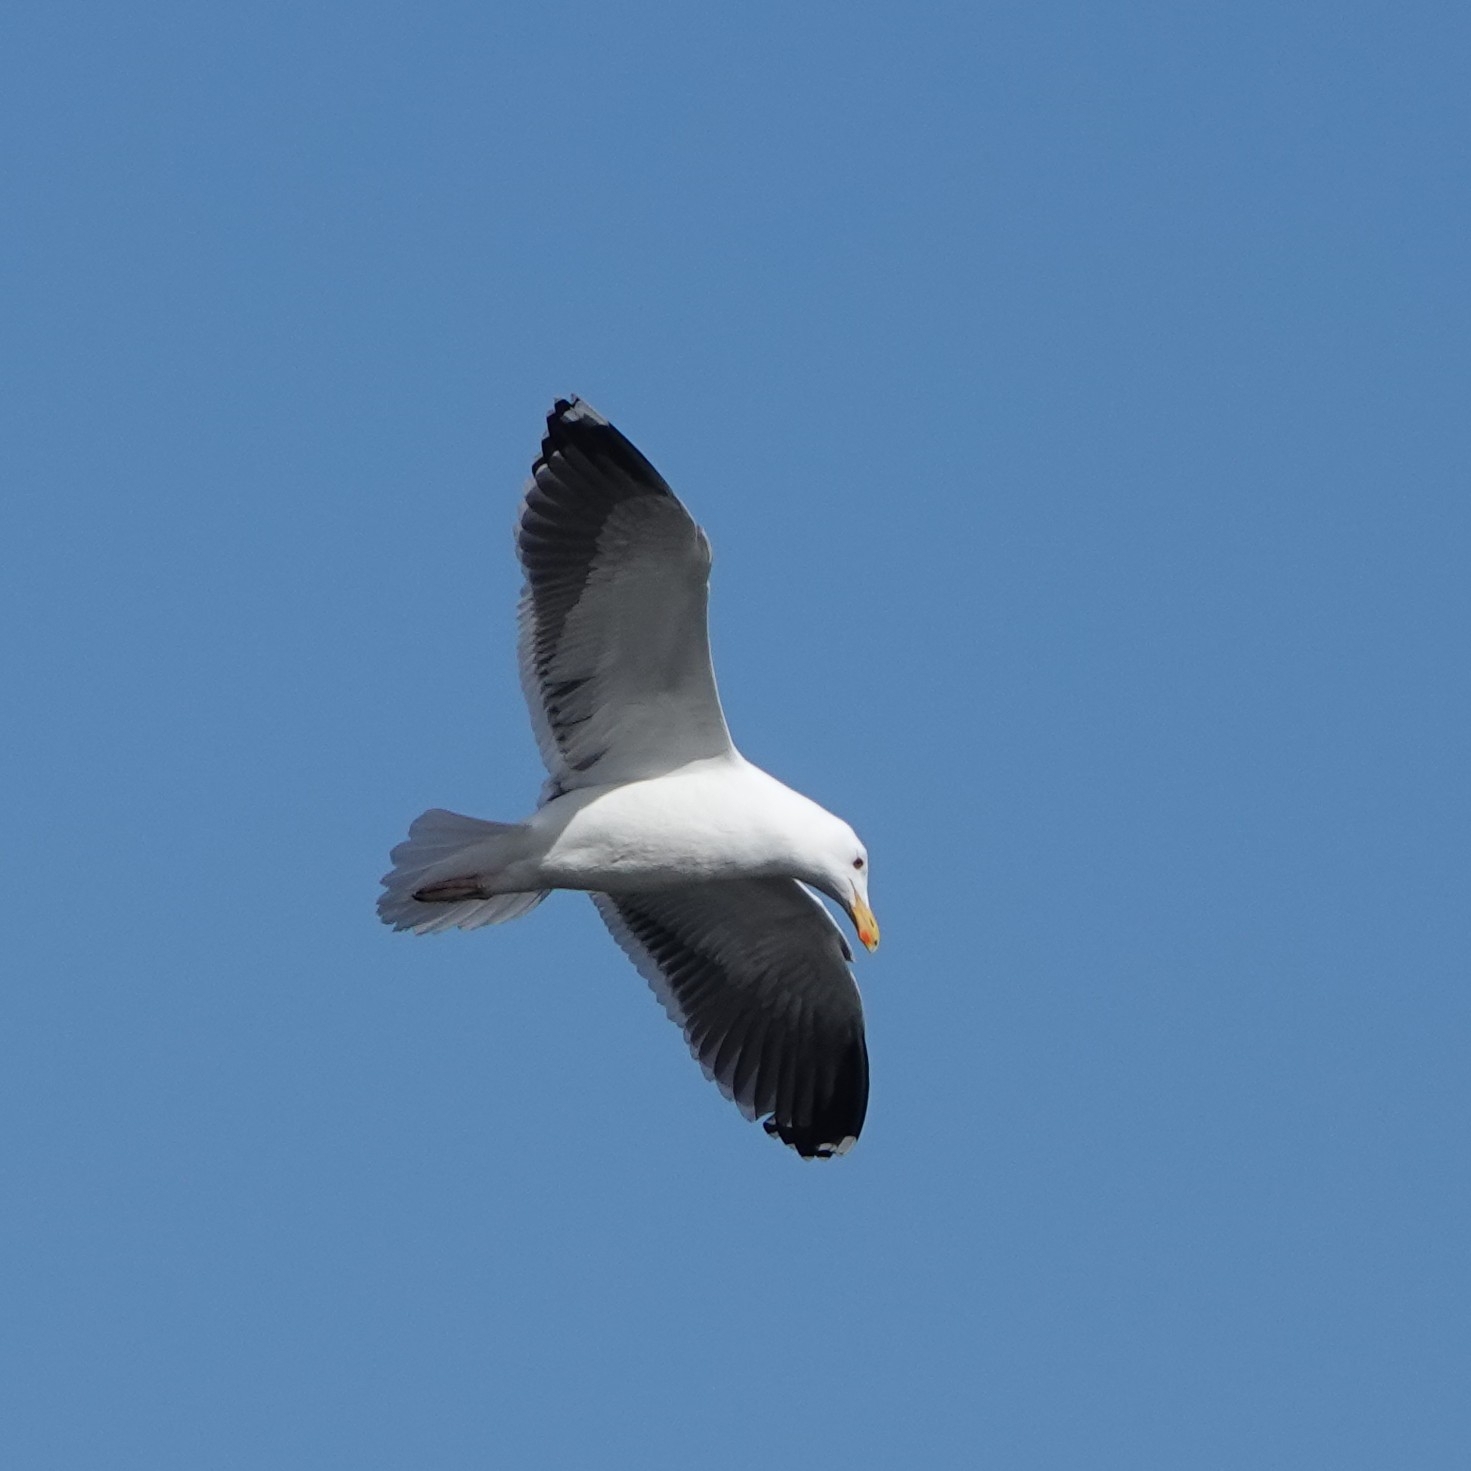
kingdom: Animalia
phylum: Chordata
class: Aves
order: Charadriiformes
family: Laridae
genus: Larus
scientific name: Larus marinus
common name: Great black-backed gull
